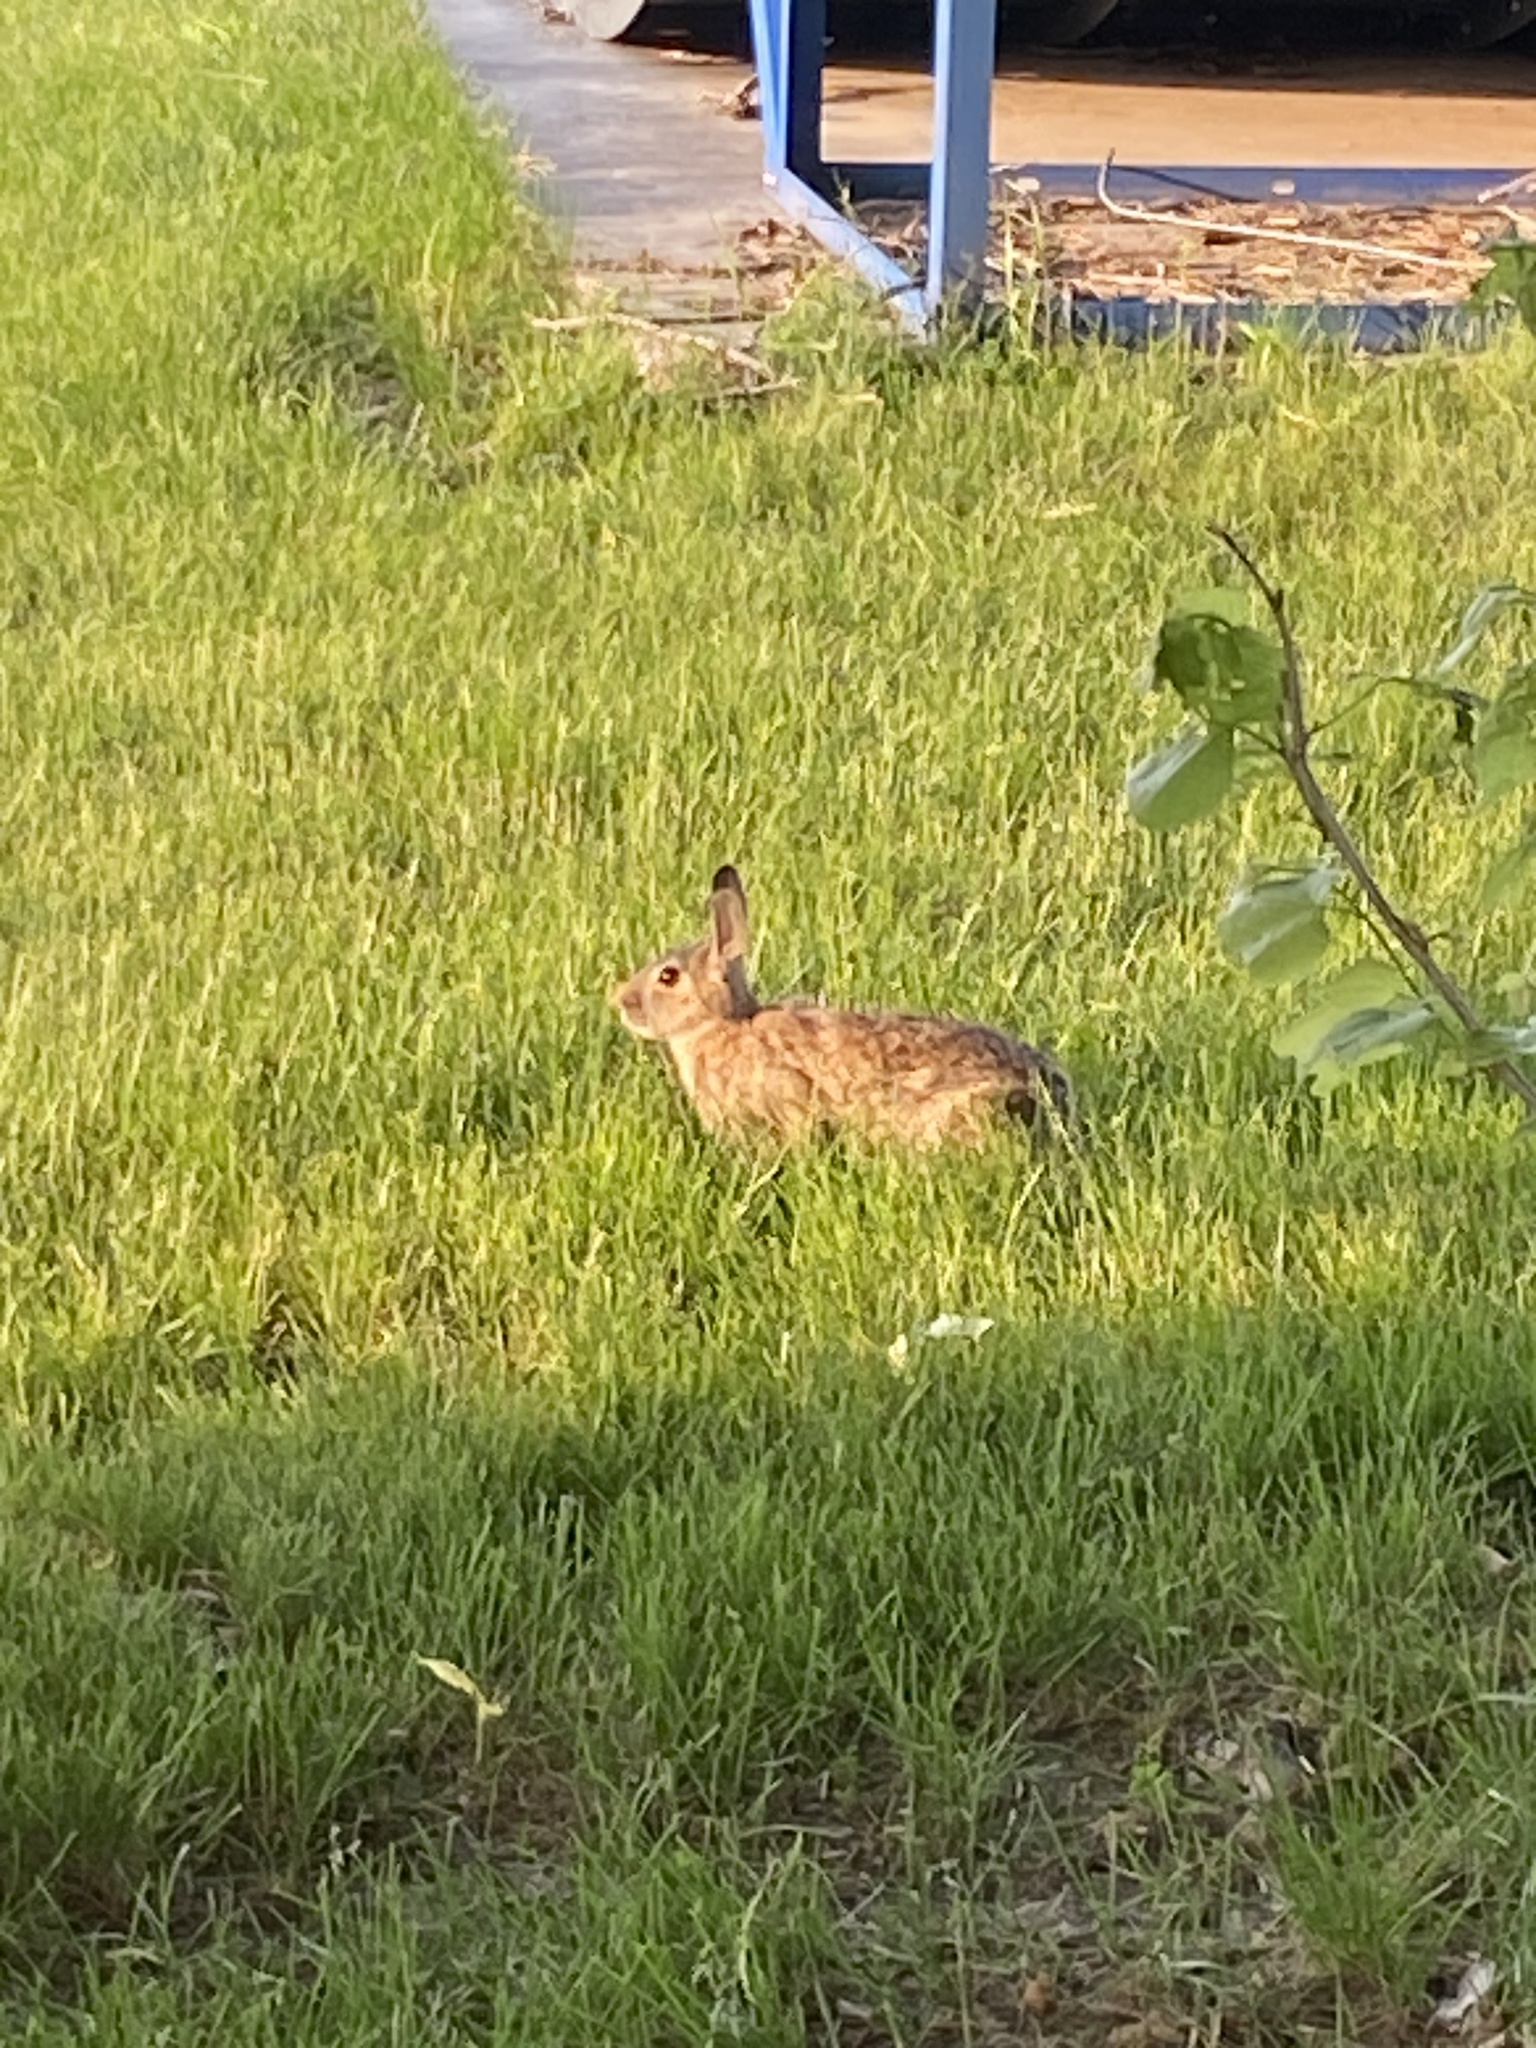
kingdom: Animalia
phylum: Chordata
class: Mammalia
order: Lagomorpha
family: Leporidae
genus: Sylvilagus
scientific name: Sylvilagus floridanus
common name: Eastern cottontail
